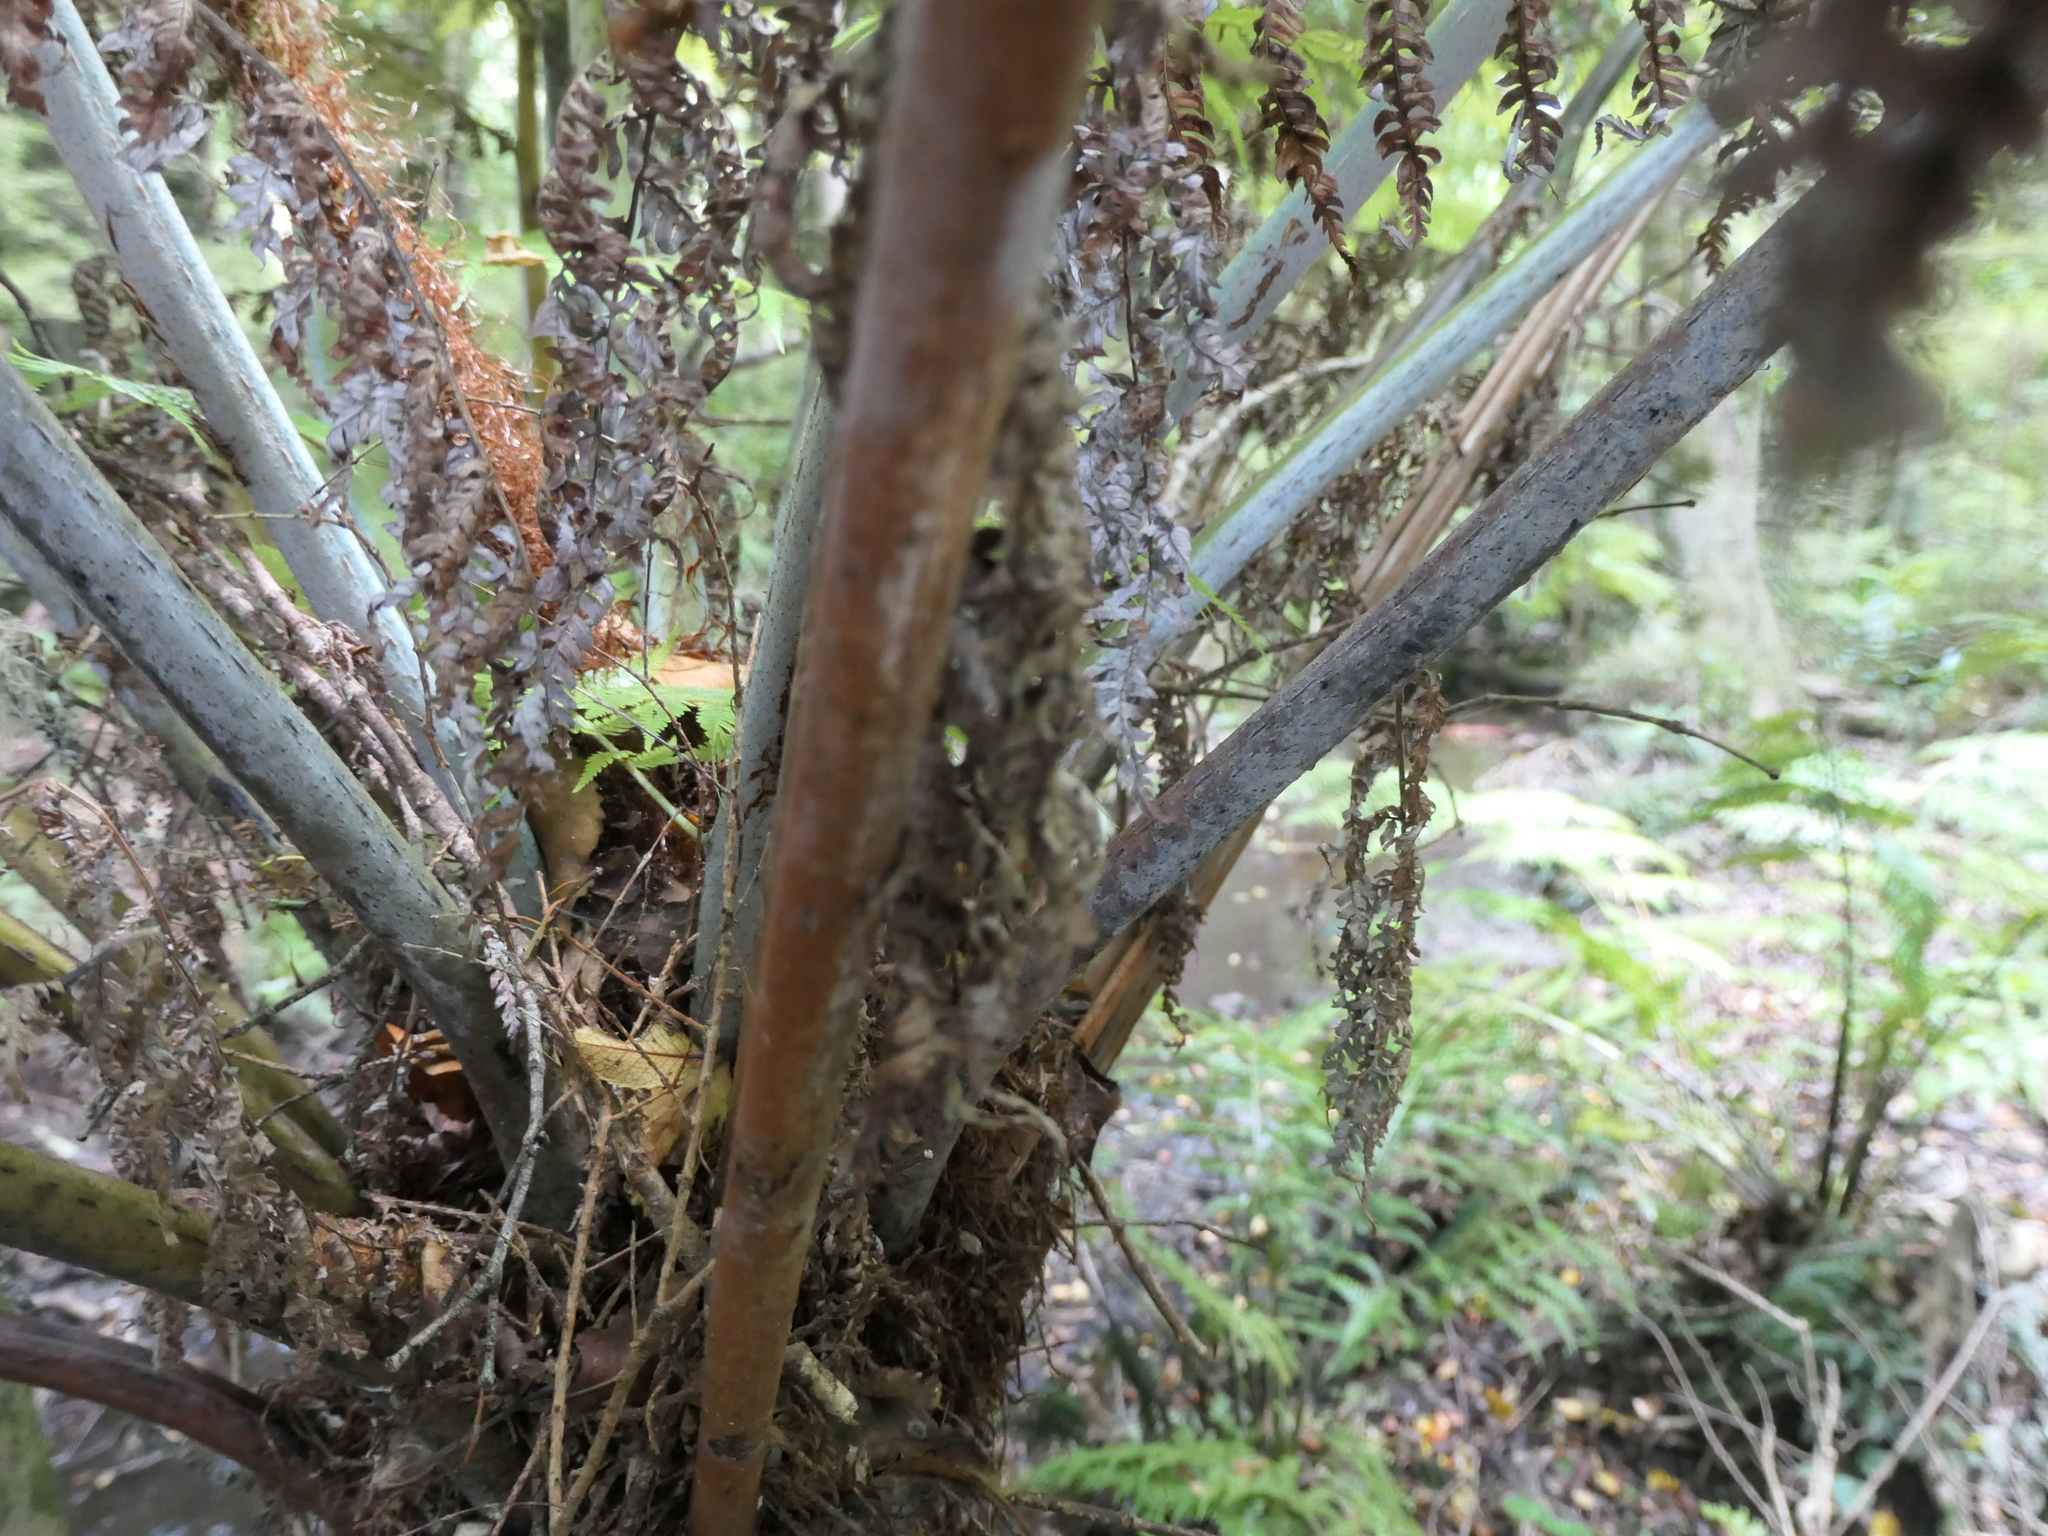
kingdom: Plantae
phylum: Tracheophyta
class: Polypodiopsida
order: Cyatheales
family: Cyatheaceae
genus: Alsophila
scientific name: Alsophila dealbata
